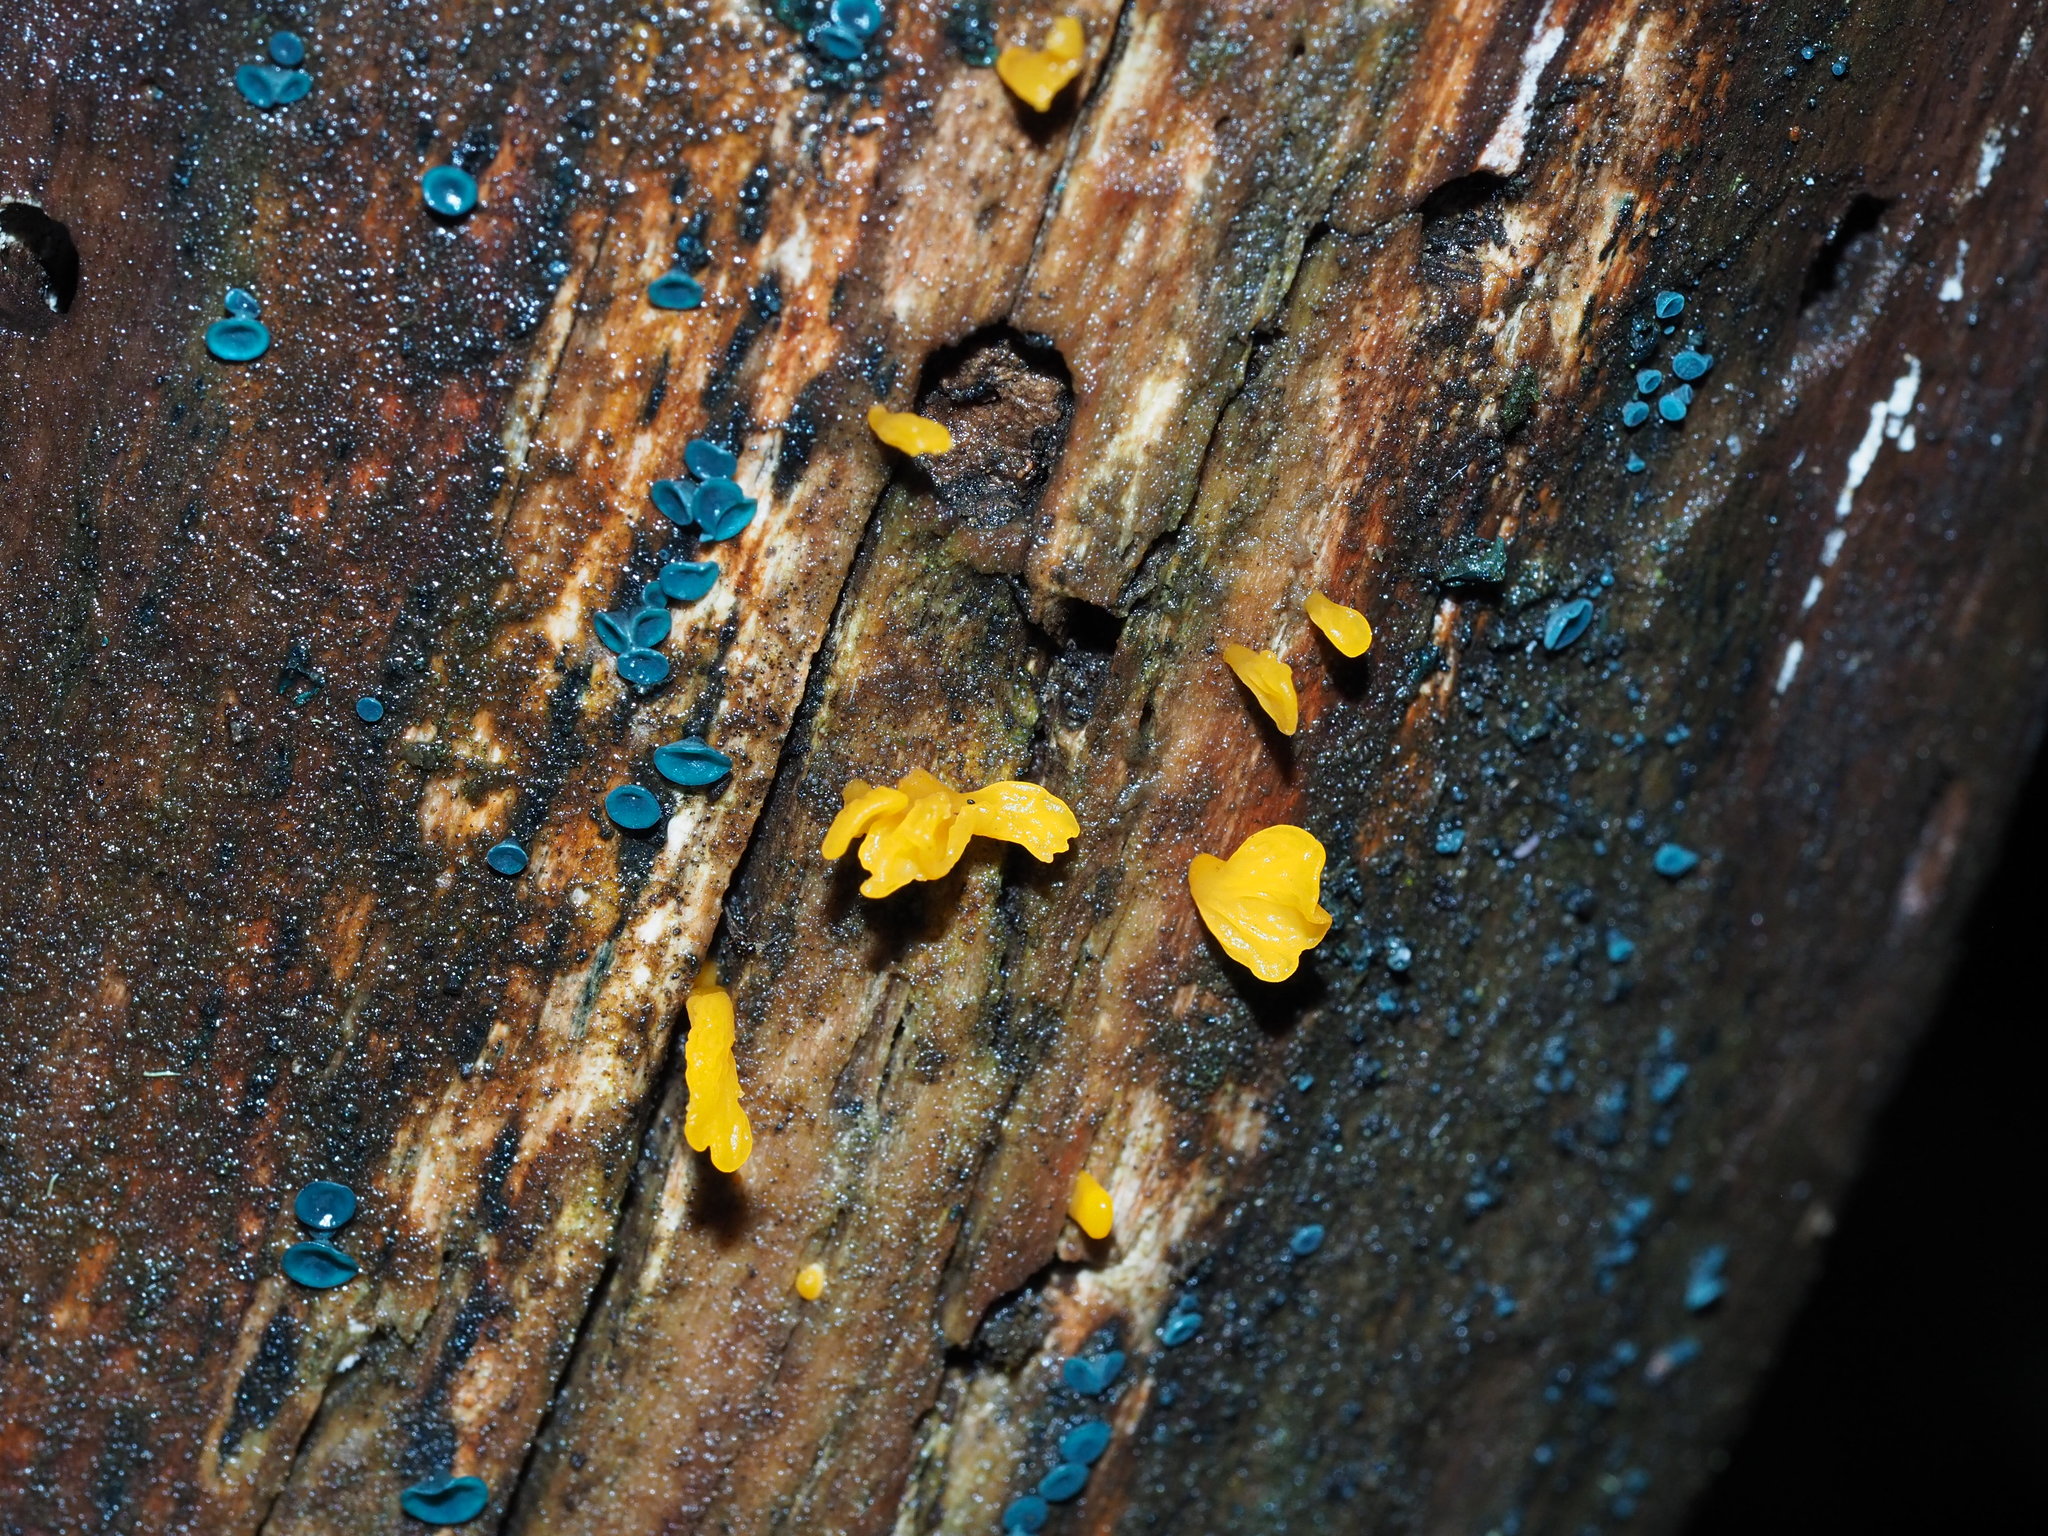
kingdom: Fungi
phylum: Basidiomycota
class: Dacrymycetes
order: Dacrymycetales
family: Dacrymycetaceae
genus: Dacrymyces
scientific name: Dacrymyces spathularius
